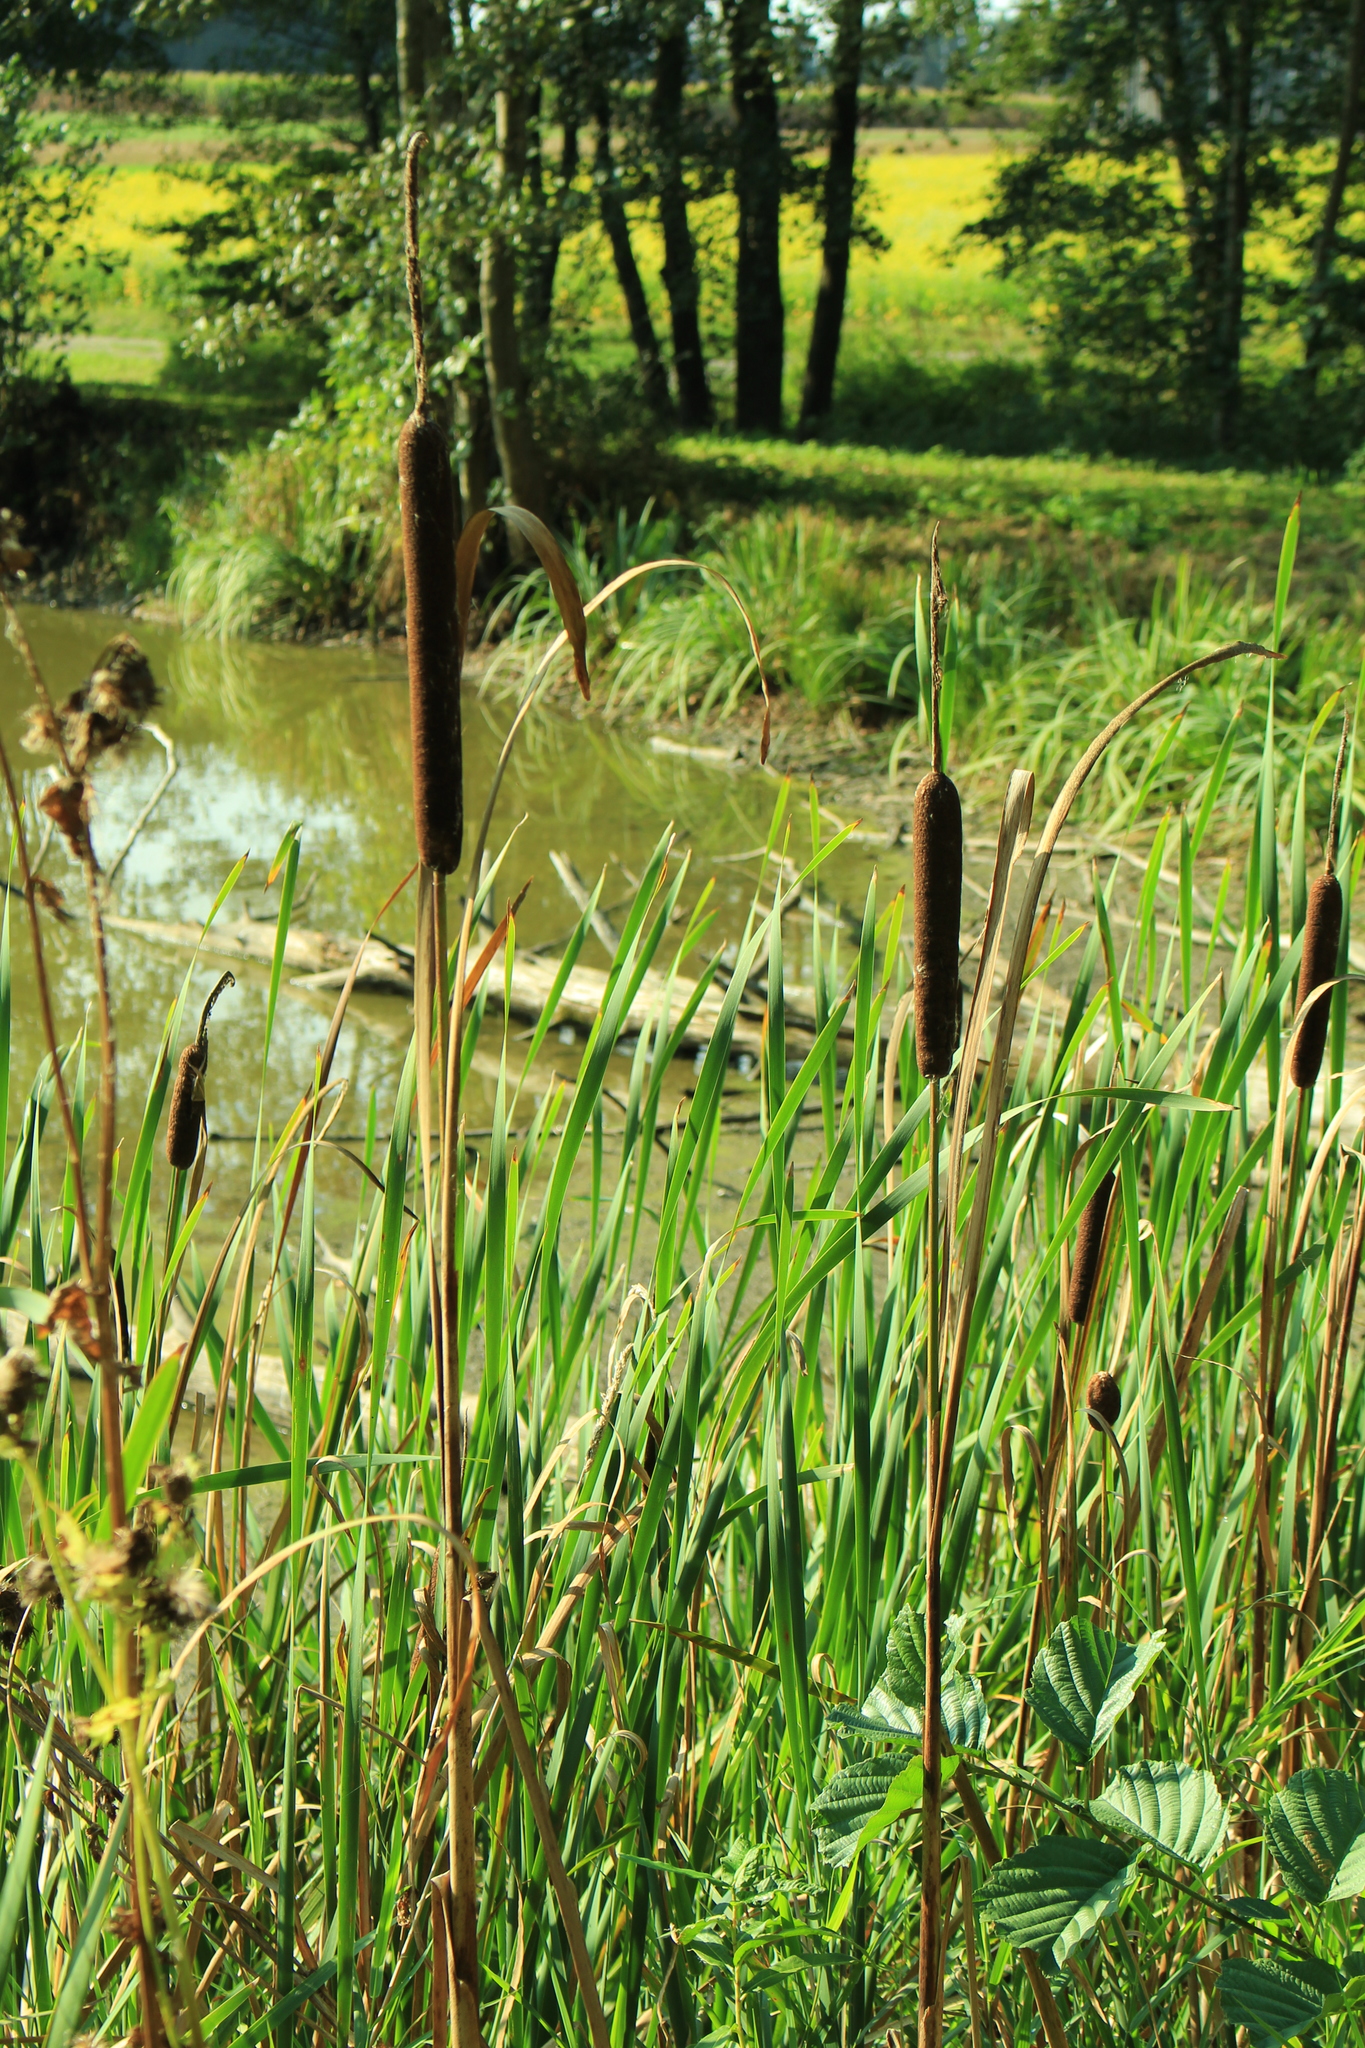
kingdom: Plantae
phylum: Tracheophyta
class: Liliopsida
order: Poales
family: Typhaceae
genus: Typha
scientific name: Typha latifolia
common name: Broadleaf cattail
